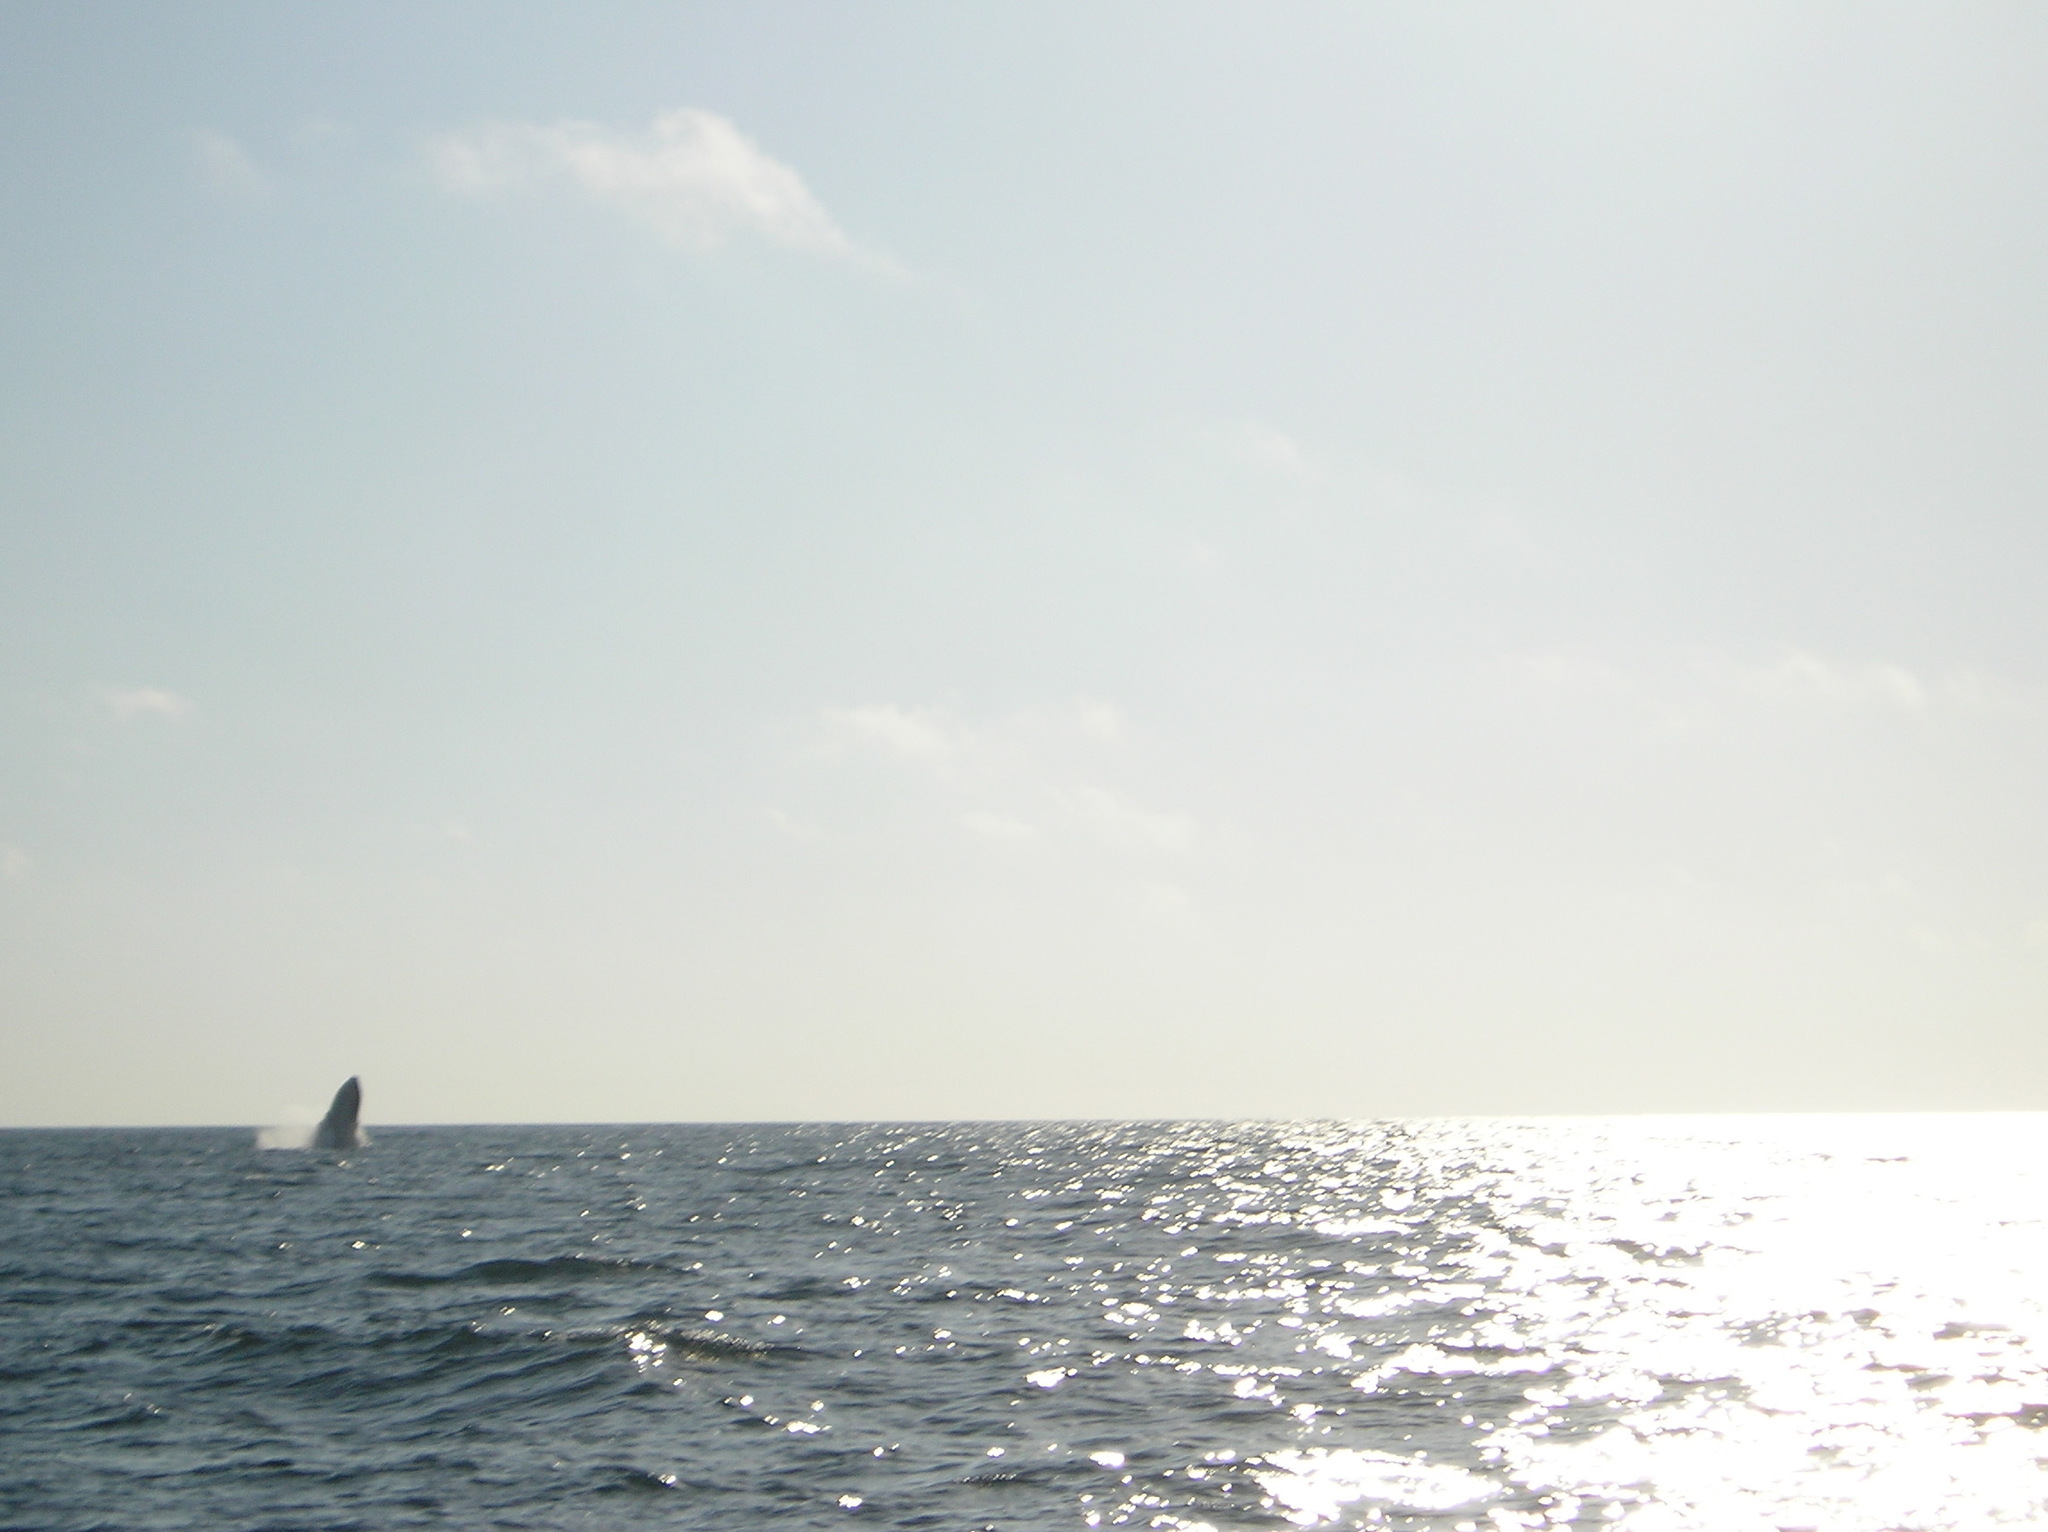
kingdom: Animalia
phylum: Chordata
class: Mammalia
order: Cetacea
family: Balaenopteridae
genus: Megaptera
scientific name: Megaptera novaeangliae
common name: Humpback whale
